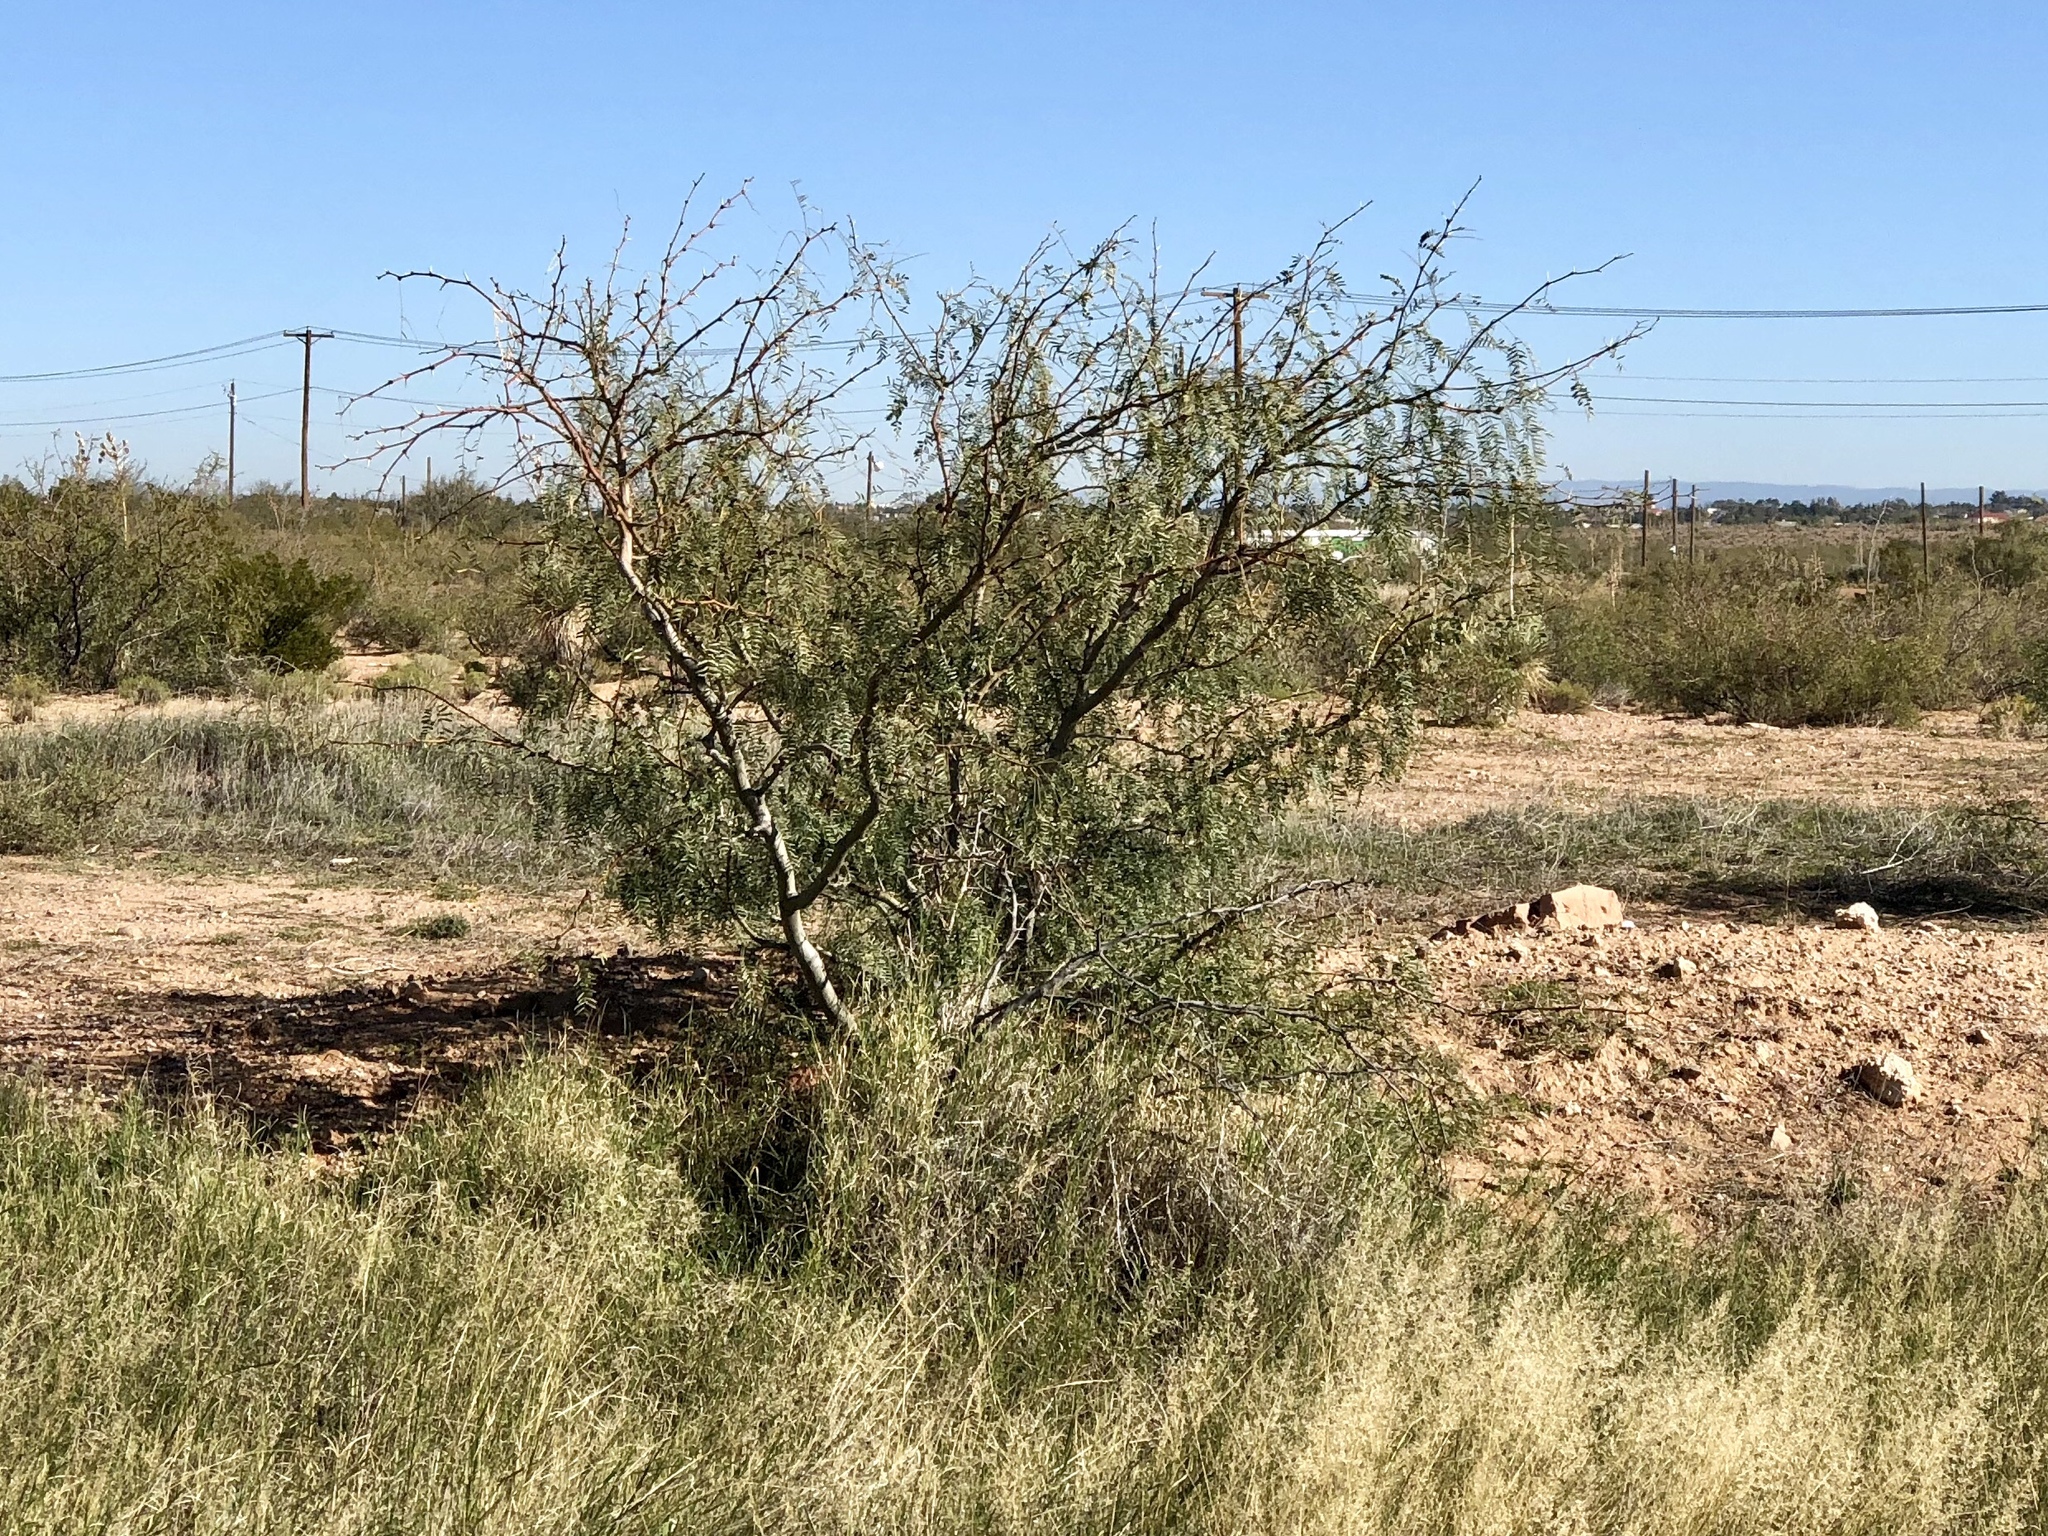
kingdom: Plantae
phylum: Tracheophyta
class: Magnoliopsida
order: Fabales
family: Fabaceae
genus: Prosopis
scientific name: Prosopis glandulosa
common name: Honey mesquite
